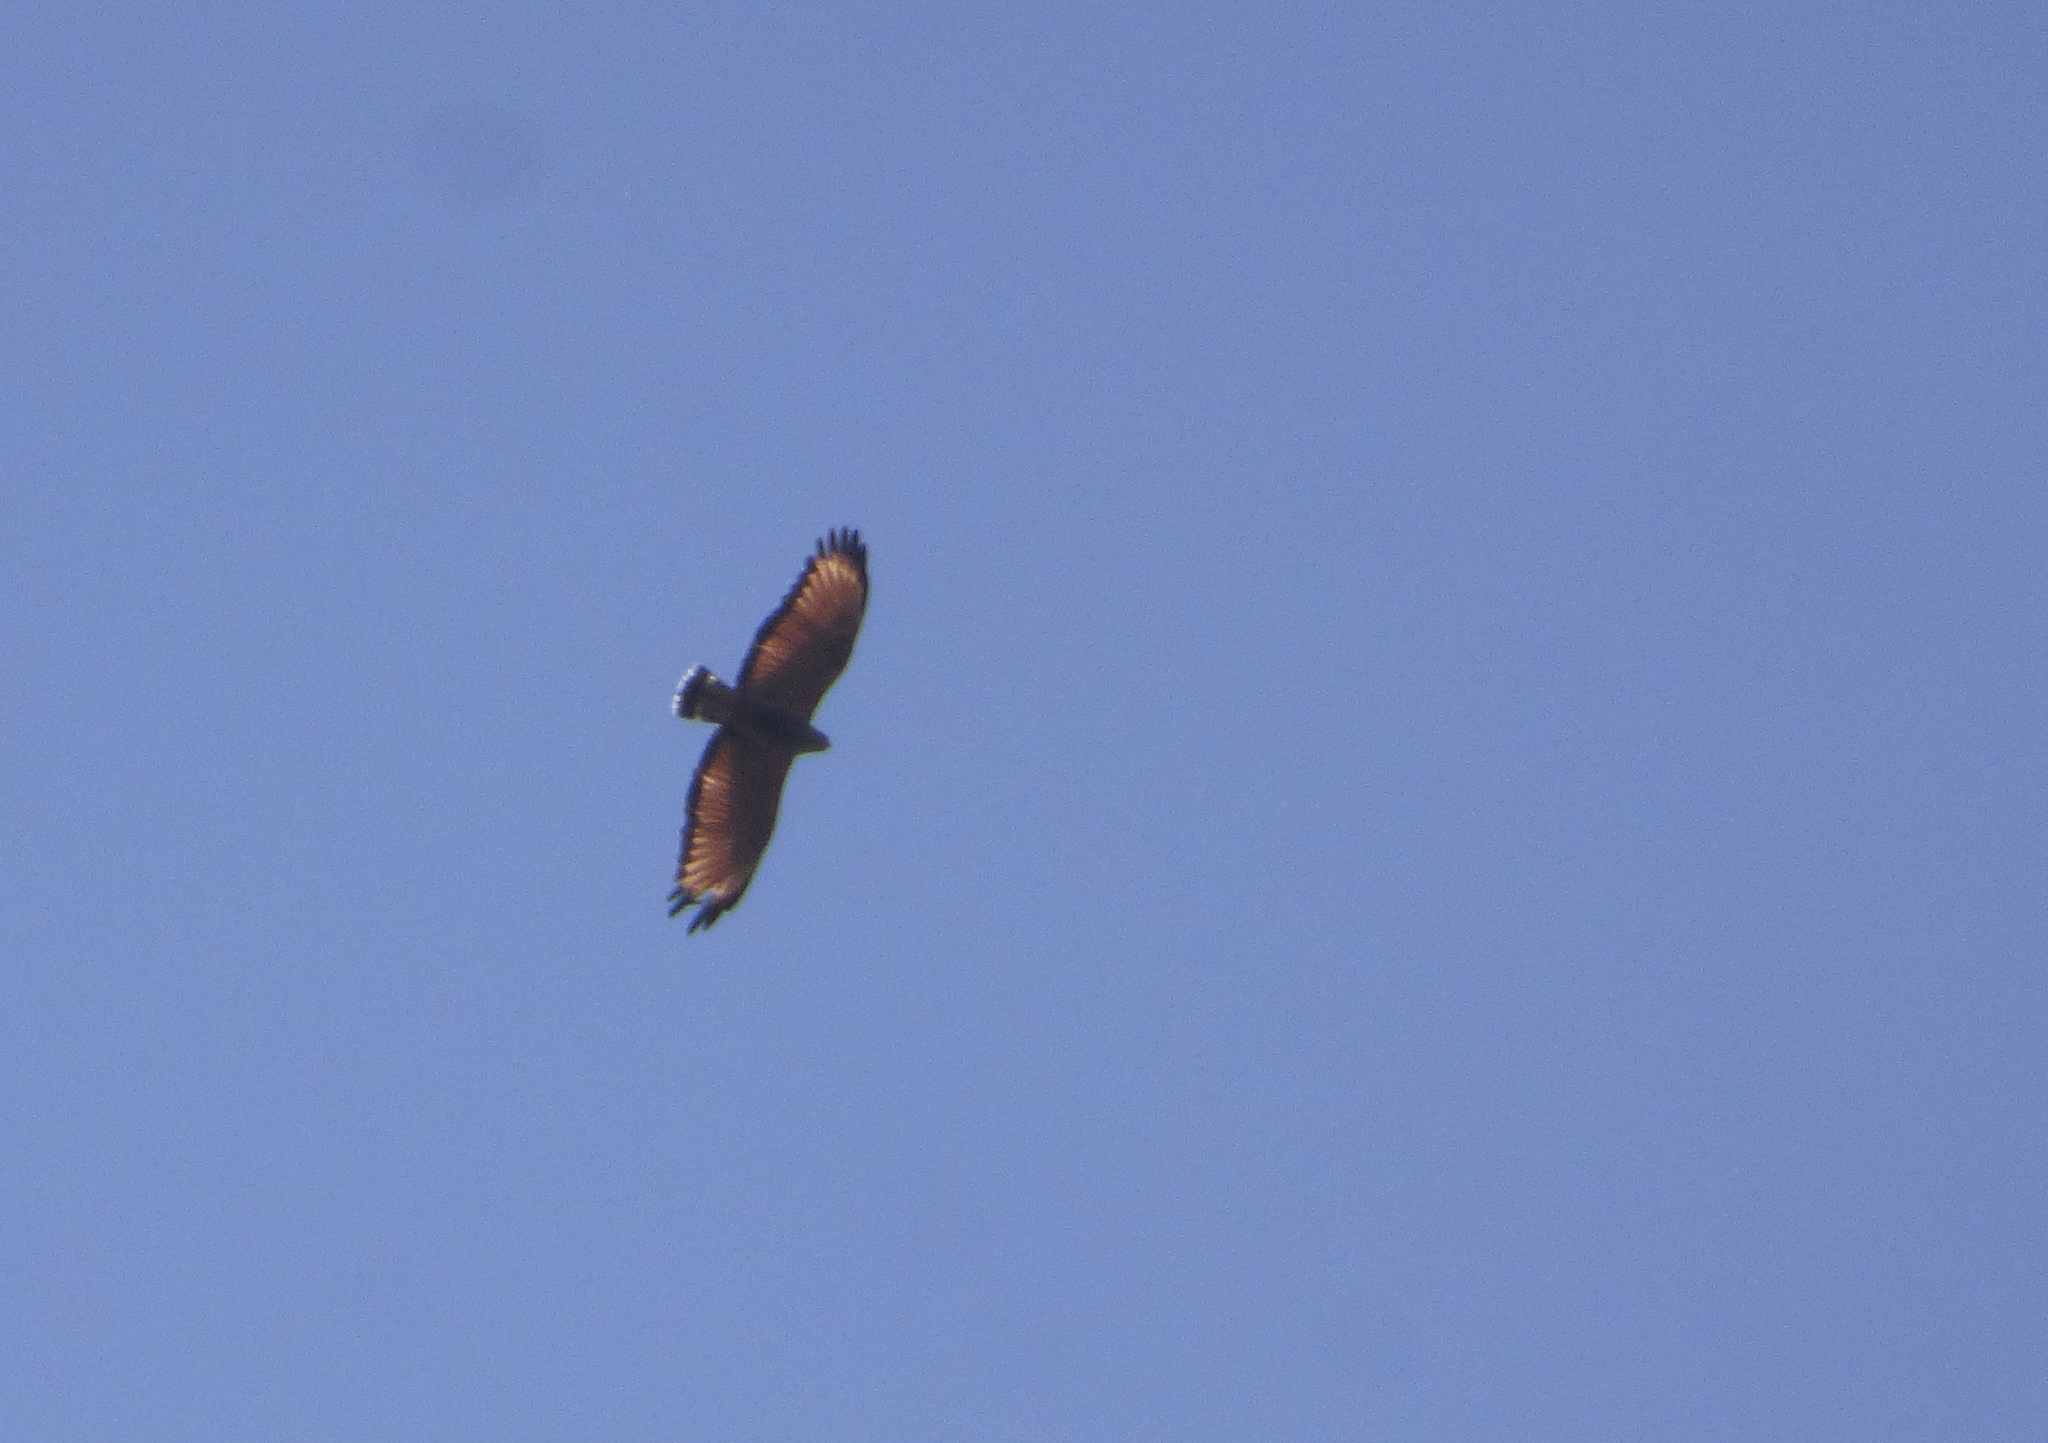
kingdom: Animalia
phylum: Chordata
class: Aves
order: Accipitriformes
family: Accipitridae
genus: Buteogallus
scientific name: Buteogallus meridionalis
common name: Savanna hawk
